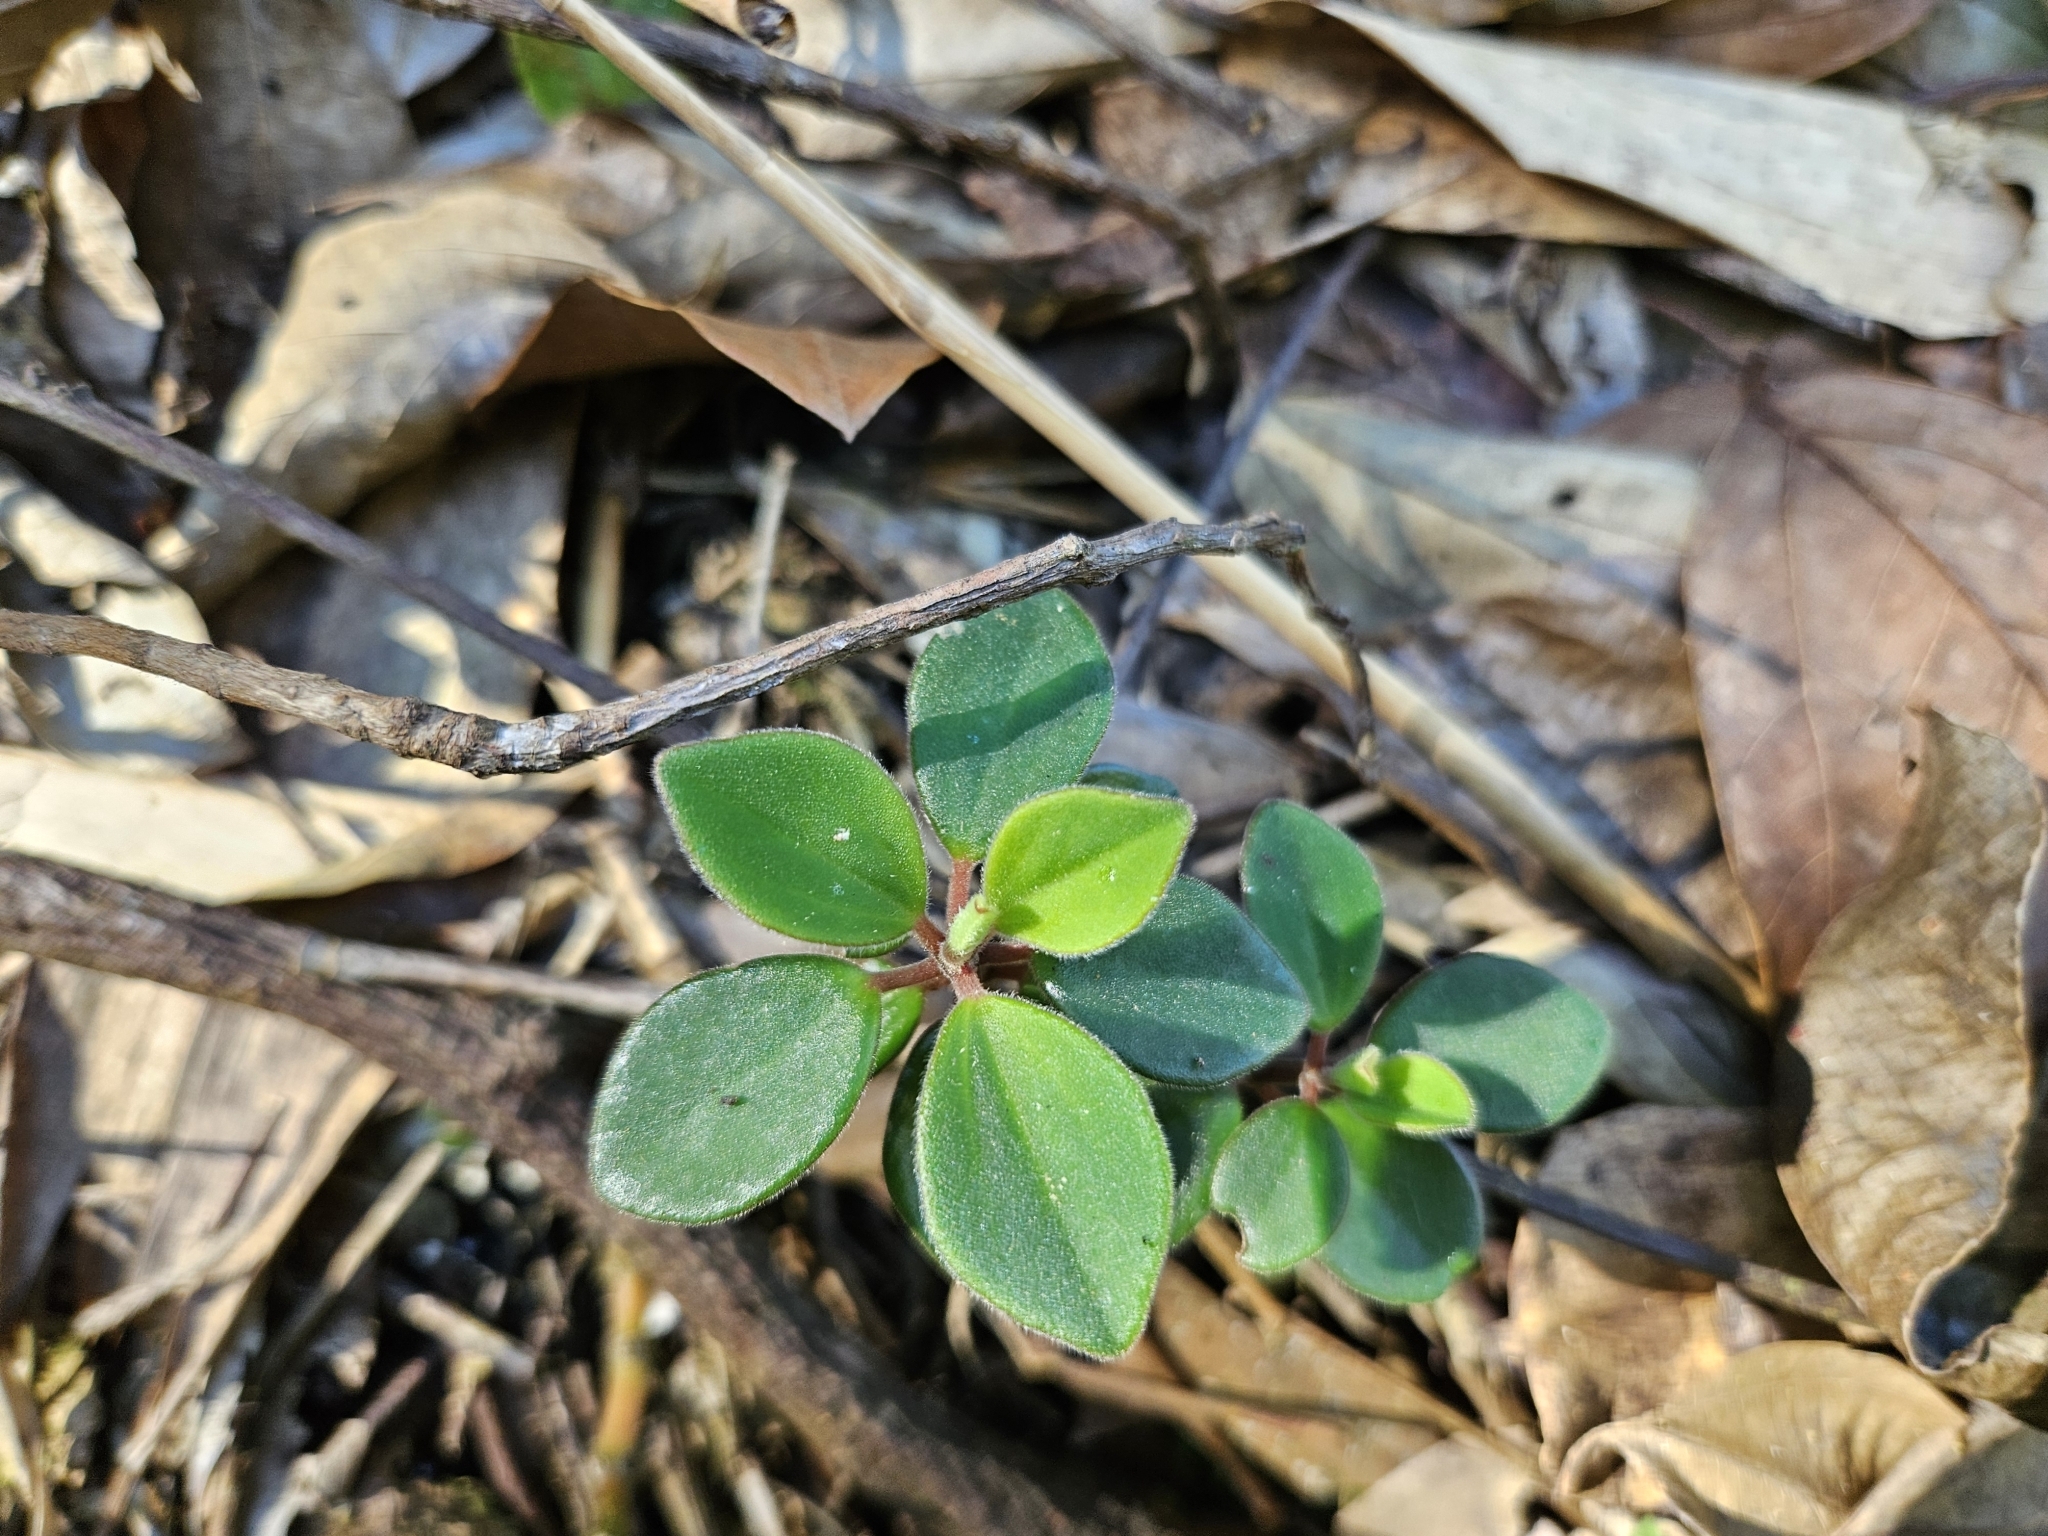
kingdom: Plantae
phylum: Tracheophyta
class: Magnoliopsida
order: Piperales
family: Piperaceae
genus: Peperomia
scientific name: Peperomia japonica
